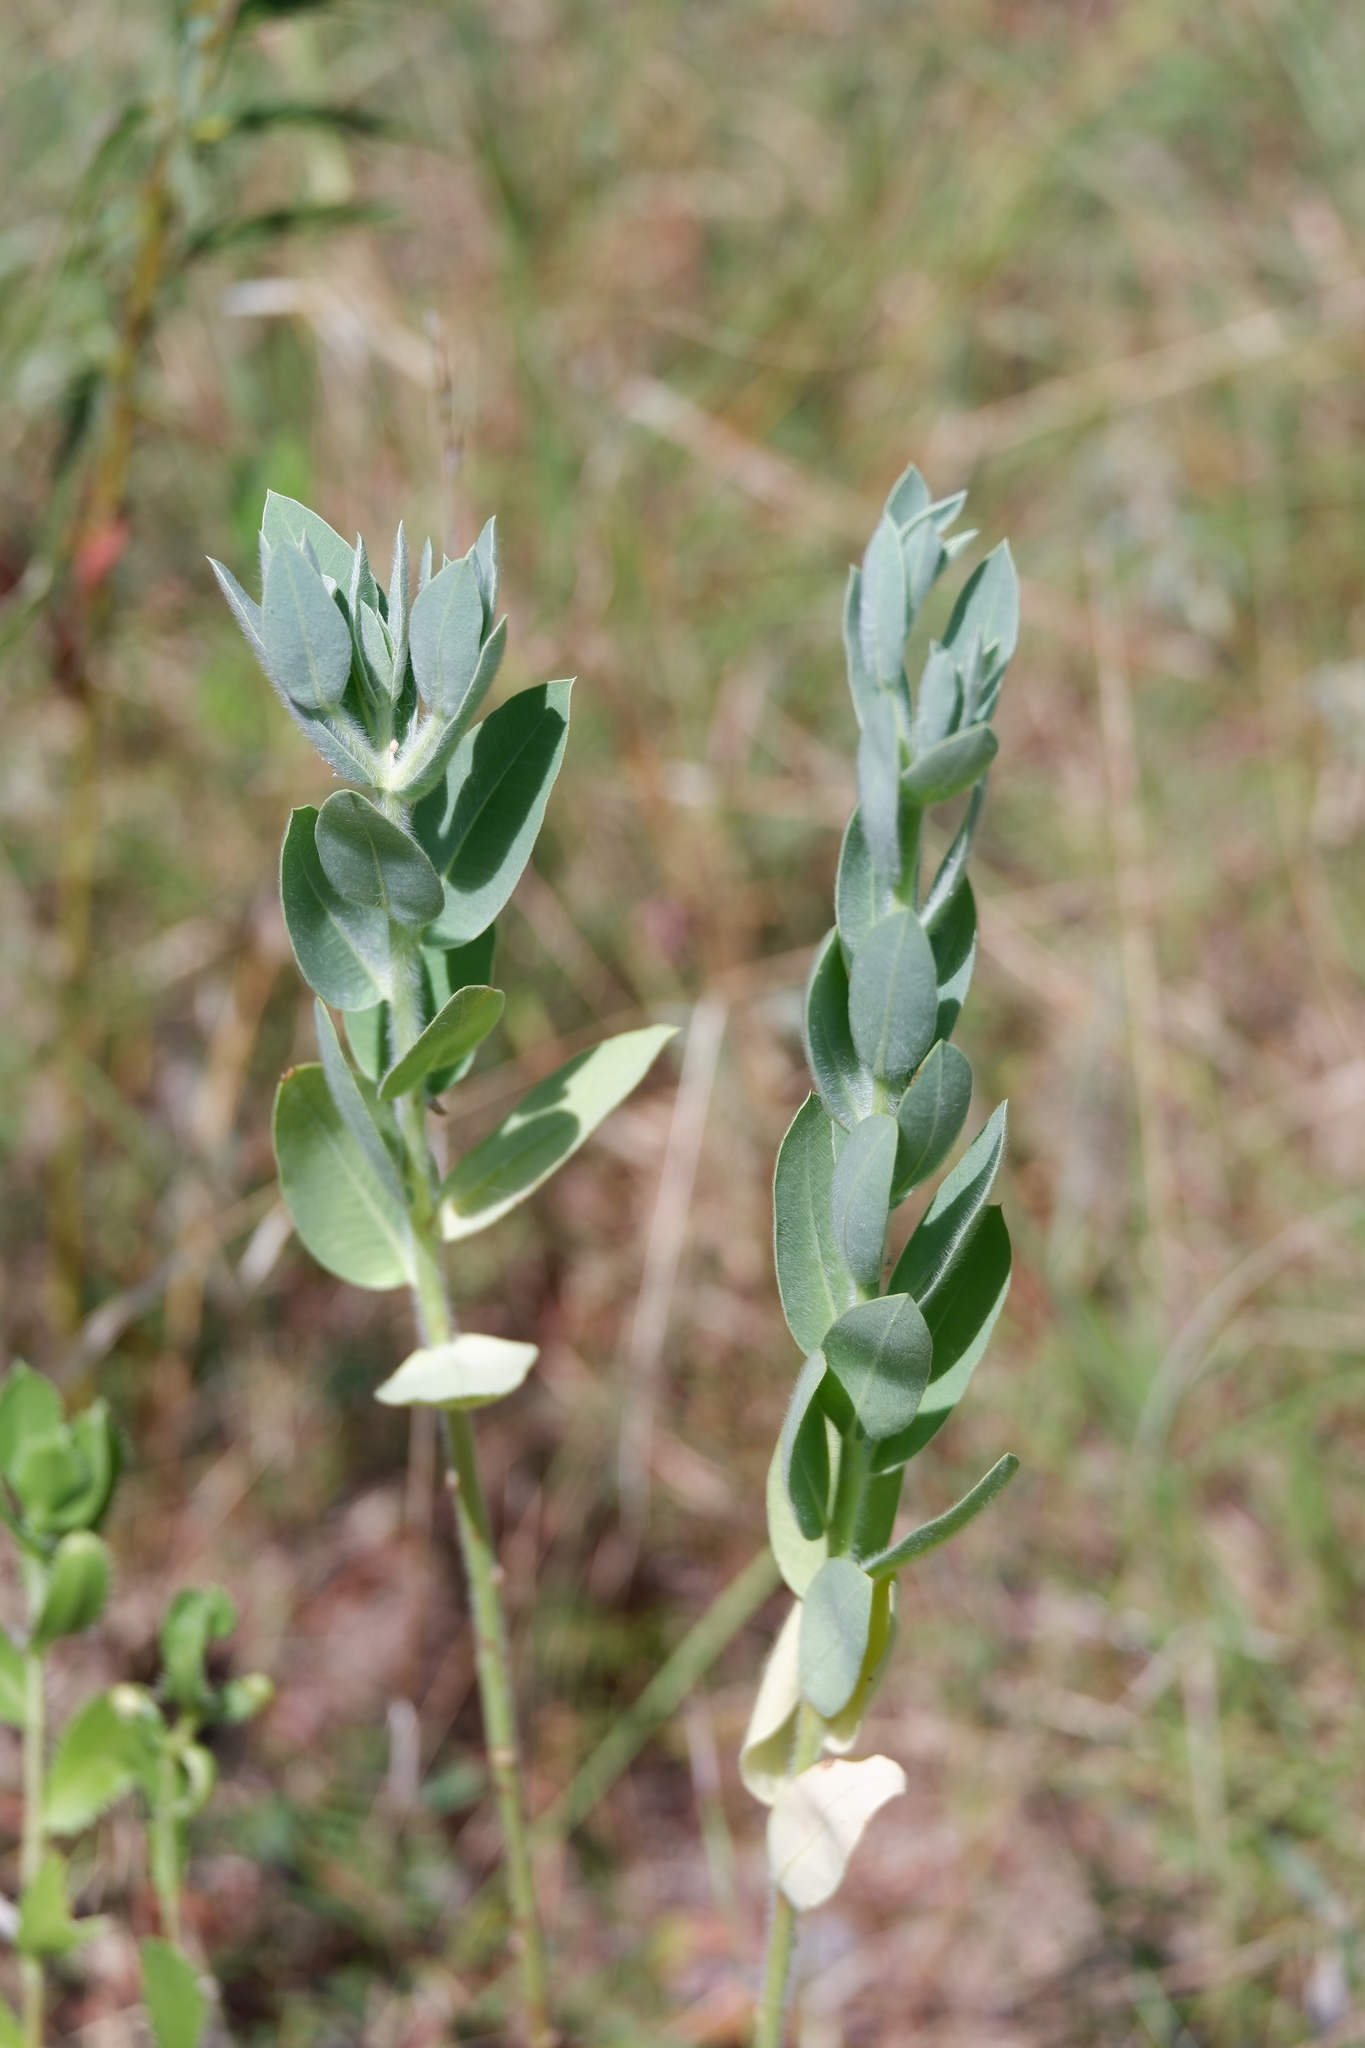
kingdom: Plantae
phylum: Tracheophyta
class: Magnoliopsida
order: Malpighiales
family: Euphorbiaceae
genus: Euphorbia
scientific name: Euphorbia bicolor
